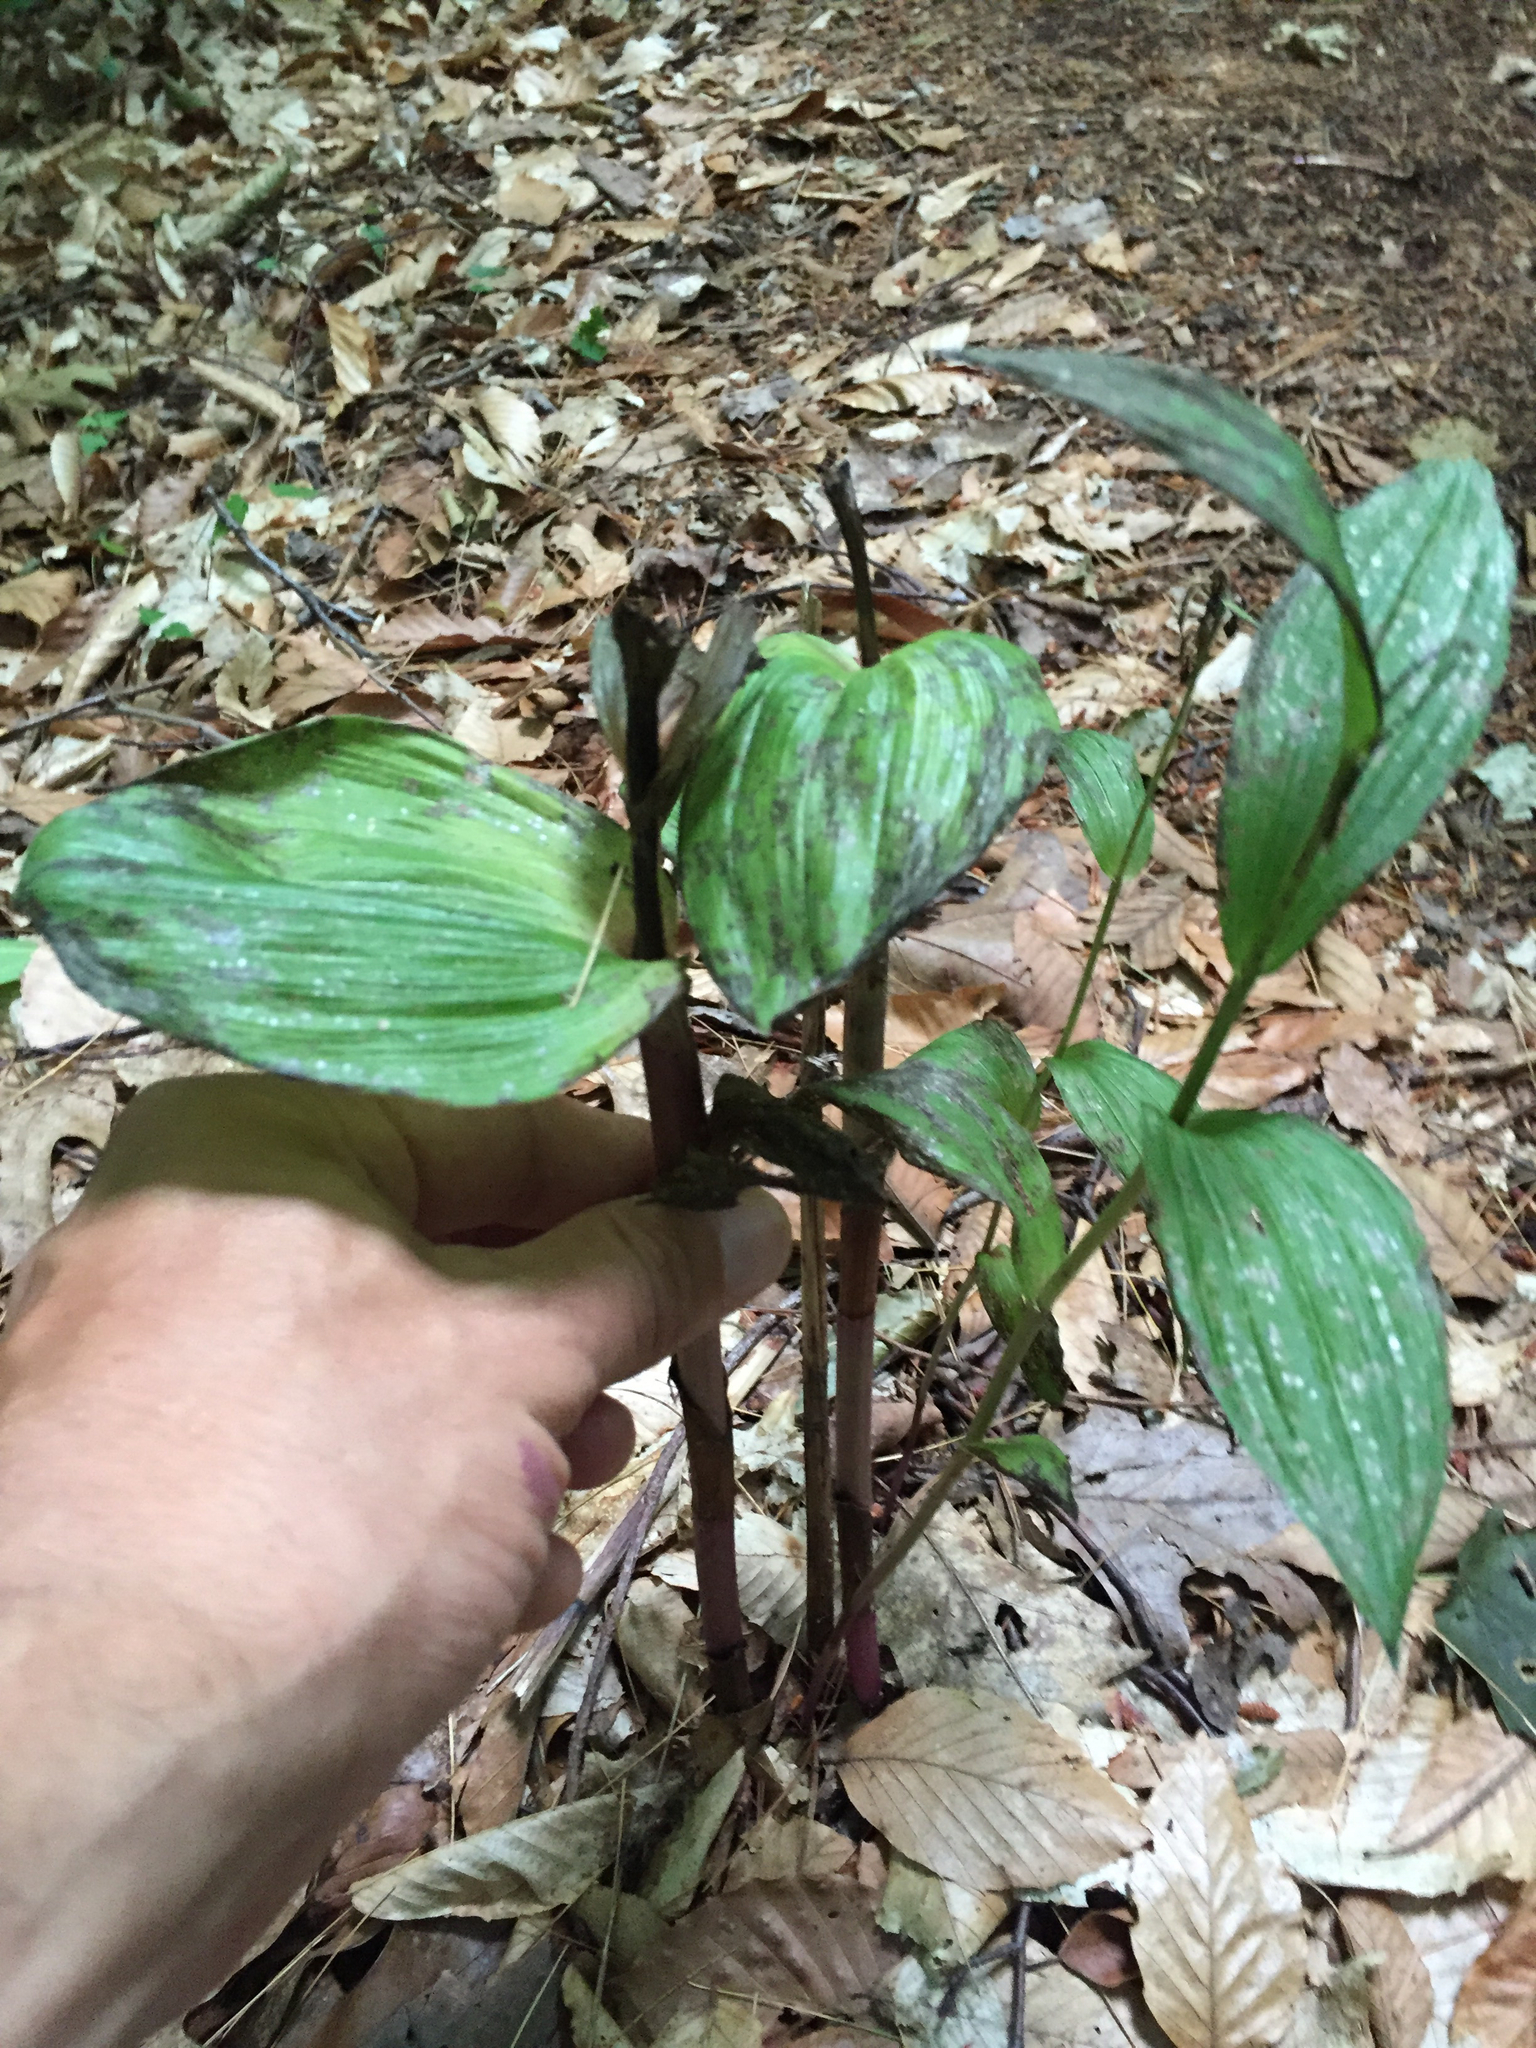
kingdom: Plantae
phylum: Tracheophyta
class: Liliopsida
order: Asparagales
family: Orchidaceae
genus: Epipactis
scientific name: Epipactis helleborine
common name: Broad-leaved helleborine
